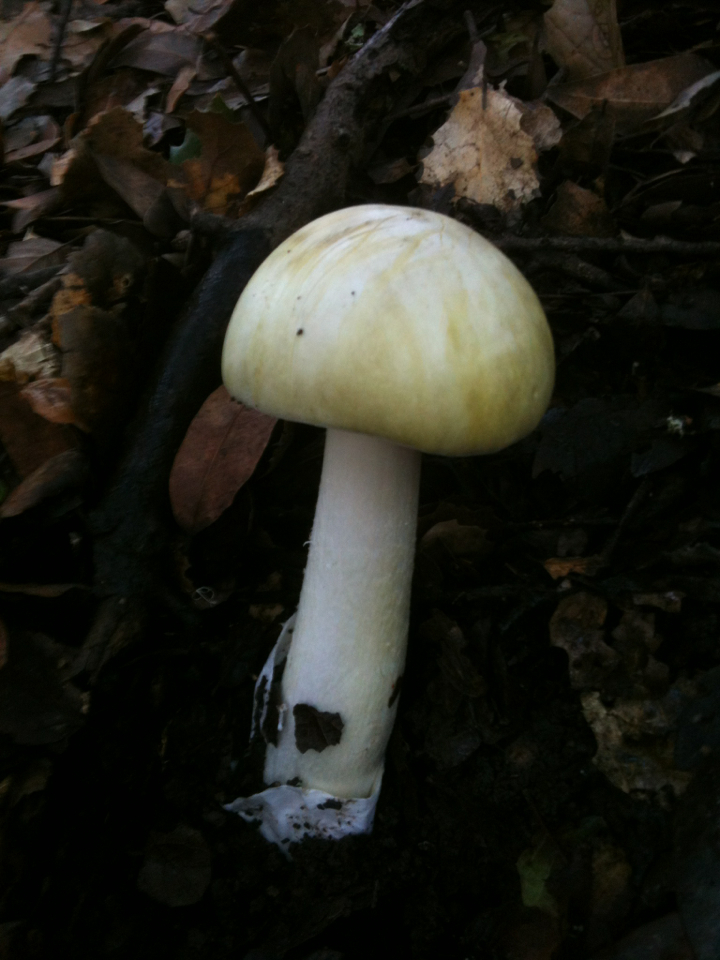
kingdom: Fungi
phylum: Basidiomycota
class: Agaricomycetes
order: Agaricales
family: Amanitaceae
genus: Amanita
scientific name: Amanita phalloides
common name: Death cap
